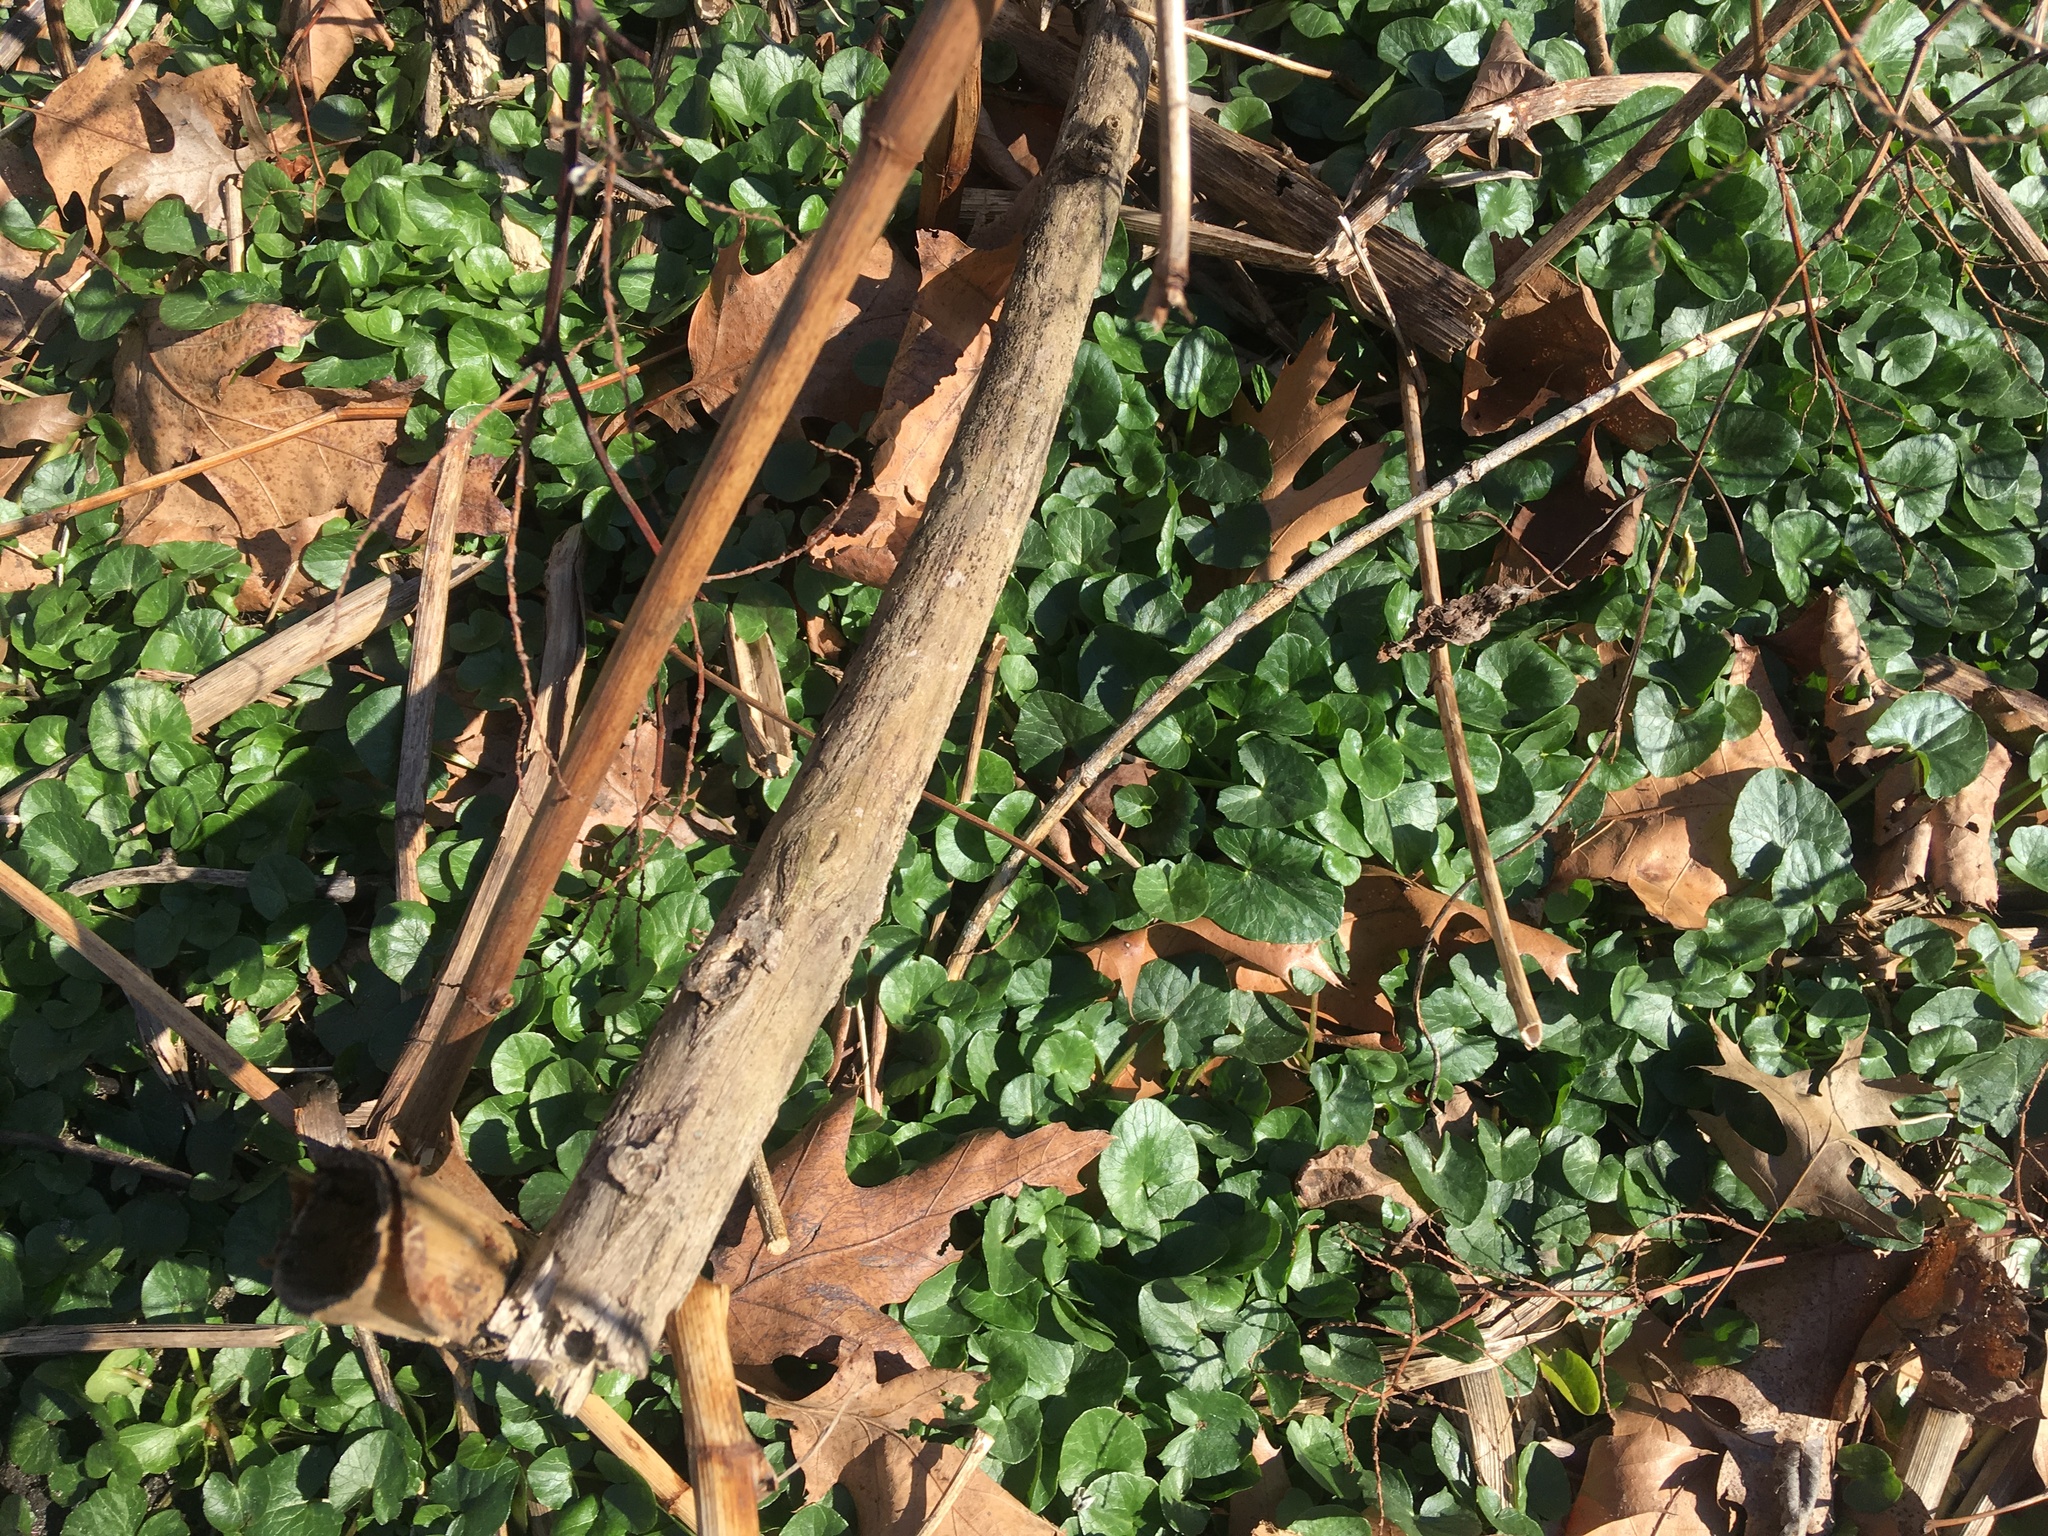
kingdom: Plantae
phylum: Tracheophyta
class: Magnoliopsida
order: Ranunculales
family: Ranunculaceae
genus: Ficaria
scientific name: Ficaria verna
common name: Lesser celandine
